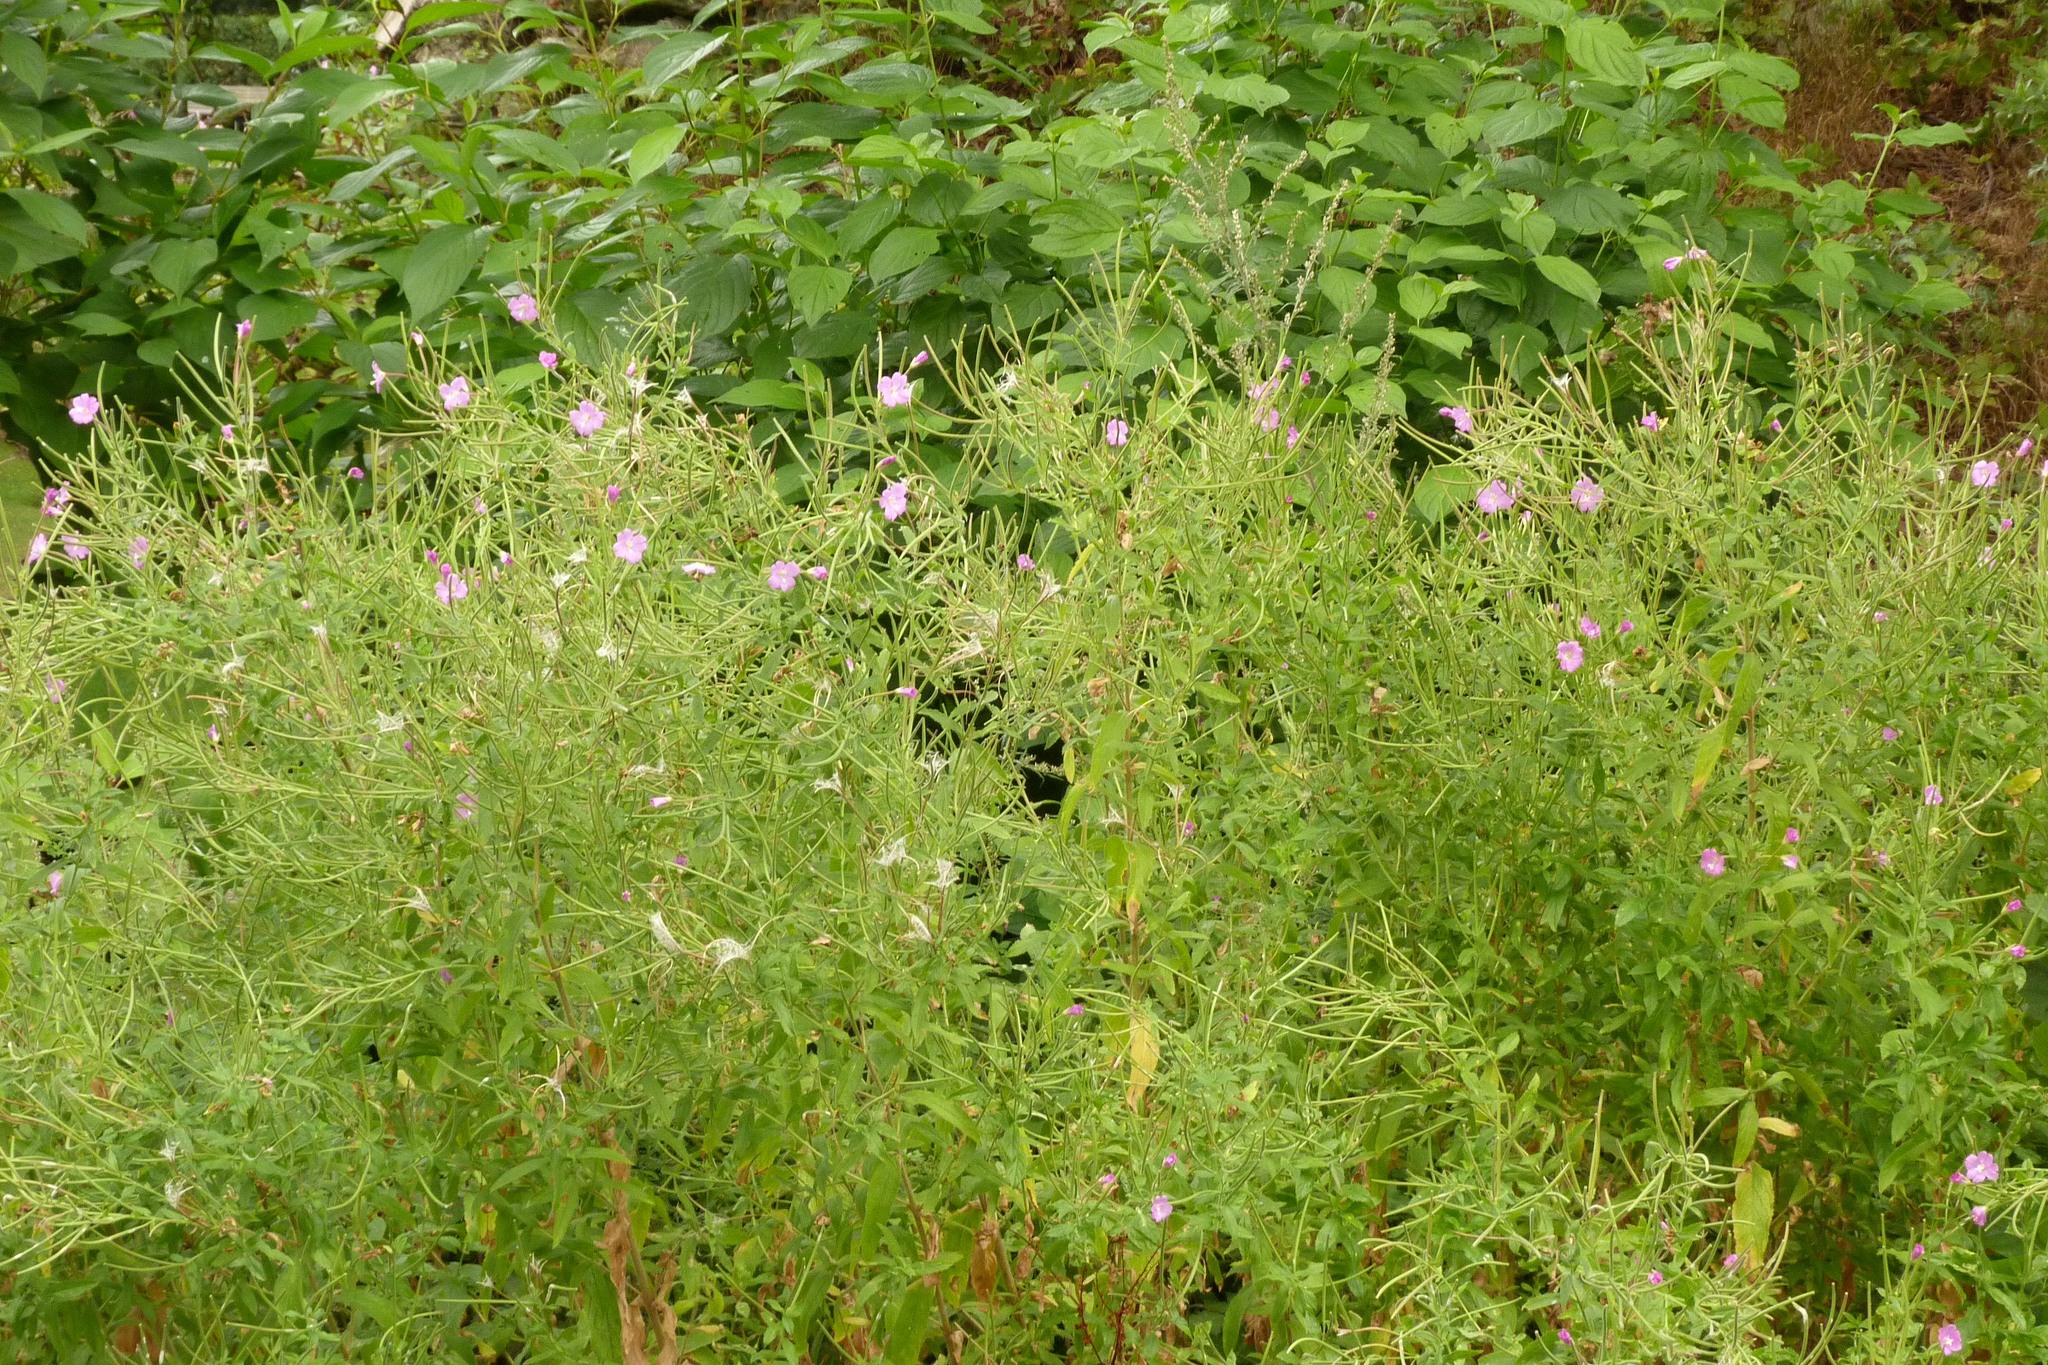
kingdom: Plantae
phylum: Tracheophyta
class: Magnoliopsida
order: Myrtales
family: Onagraceae
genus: Epilobium
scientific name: Epilobium hirsutum
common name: Great willowherb
